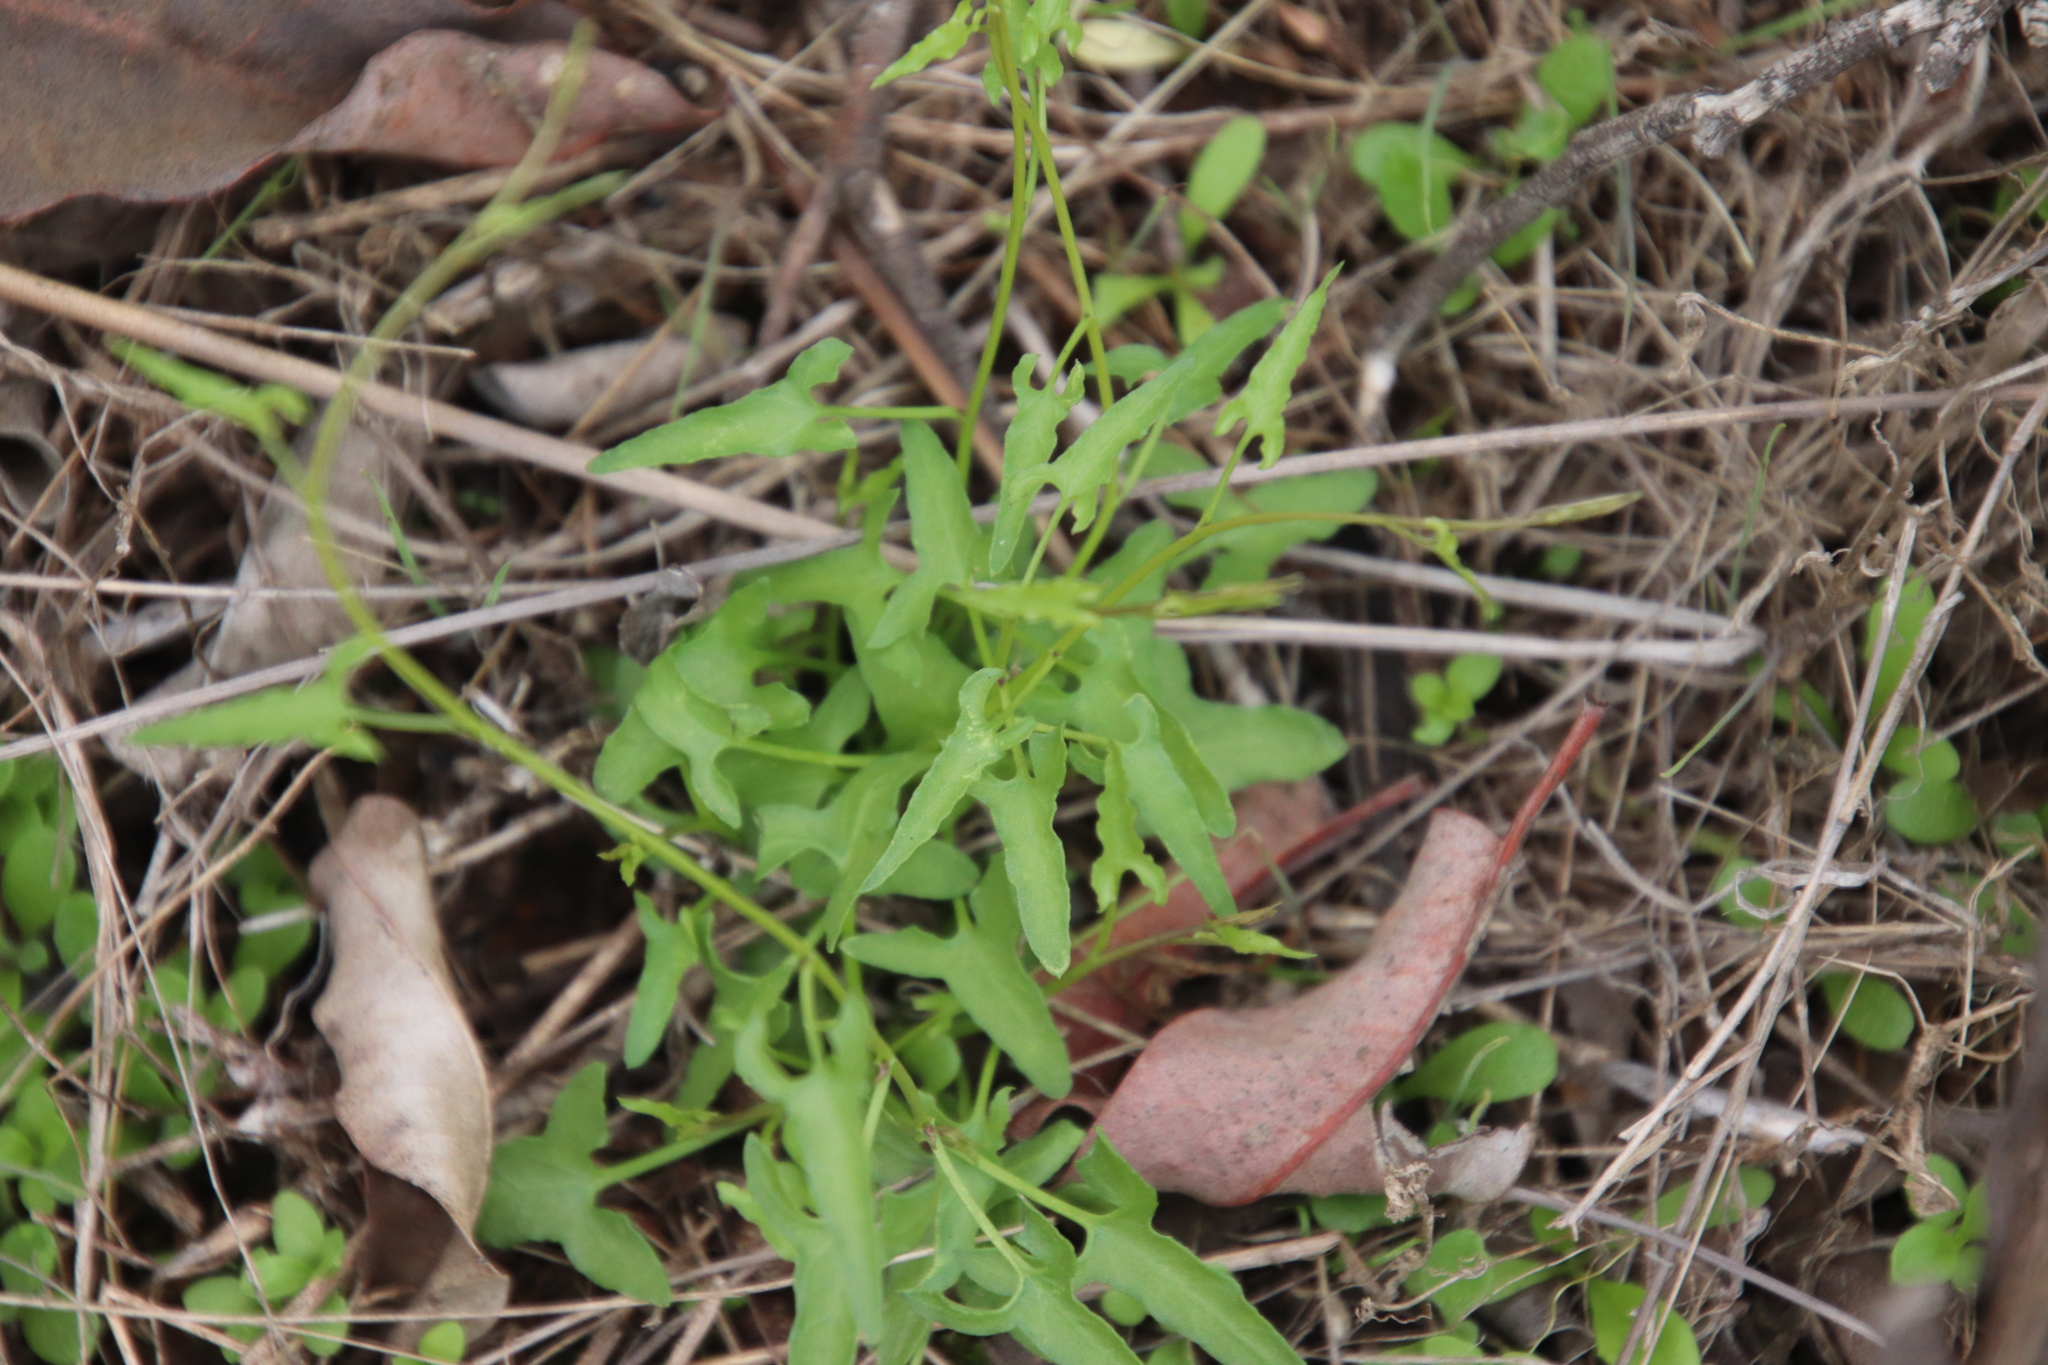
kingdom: Plantae
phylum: Tracheophyta
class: Magnoliopsida
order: Solanales
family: Convolvulaceae
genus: Calystegia
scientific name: Calystegia macrostegia
